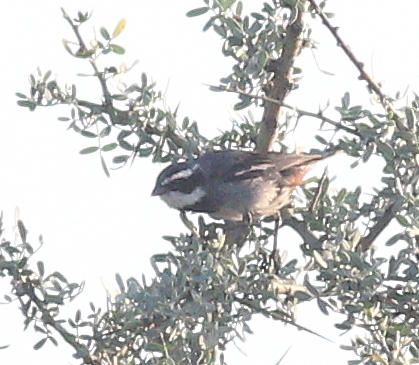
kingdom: Animalia
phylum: Chordata
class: Aves
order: Passeriformes
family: Thraupidae
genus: Microspingus
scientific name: Microspingus torquatus
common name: Ringed warbling-finch
